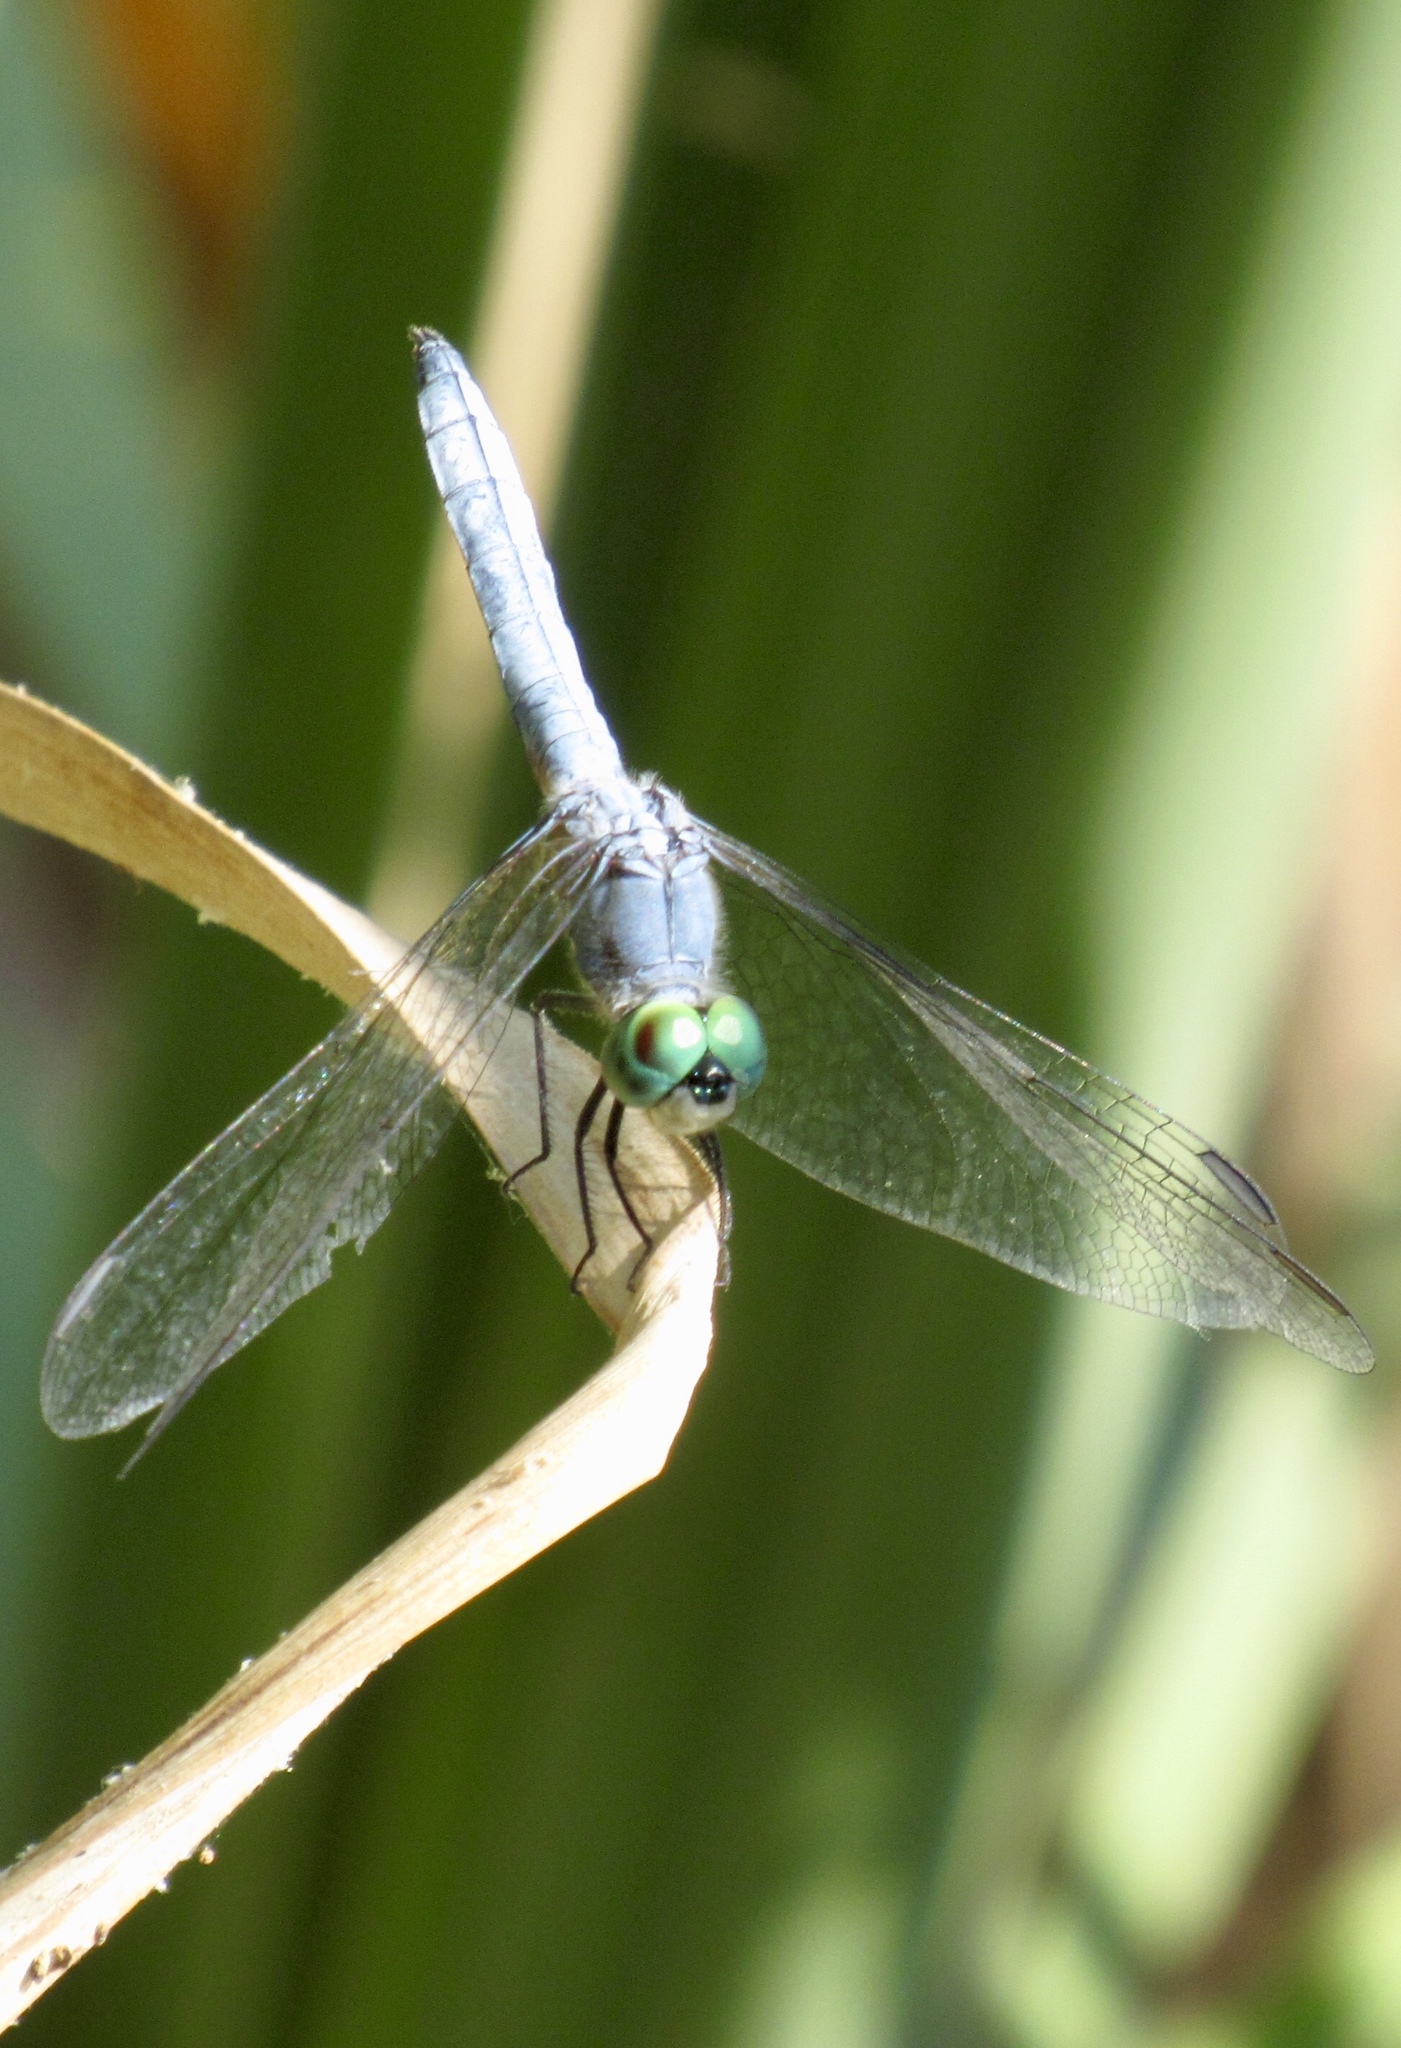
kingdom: Animalia
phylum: Arthropoda
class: Insecta
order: Odonata
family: Libellulidae
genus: Pachydiplax
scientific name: Pachydiplax longipennis
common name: Blue dasher
